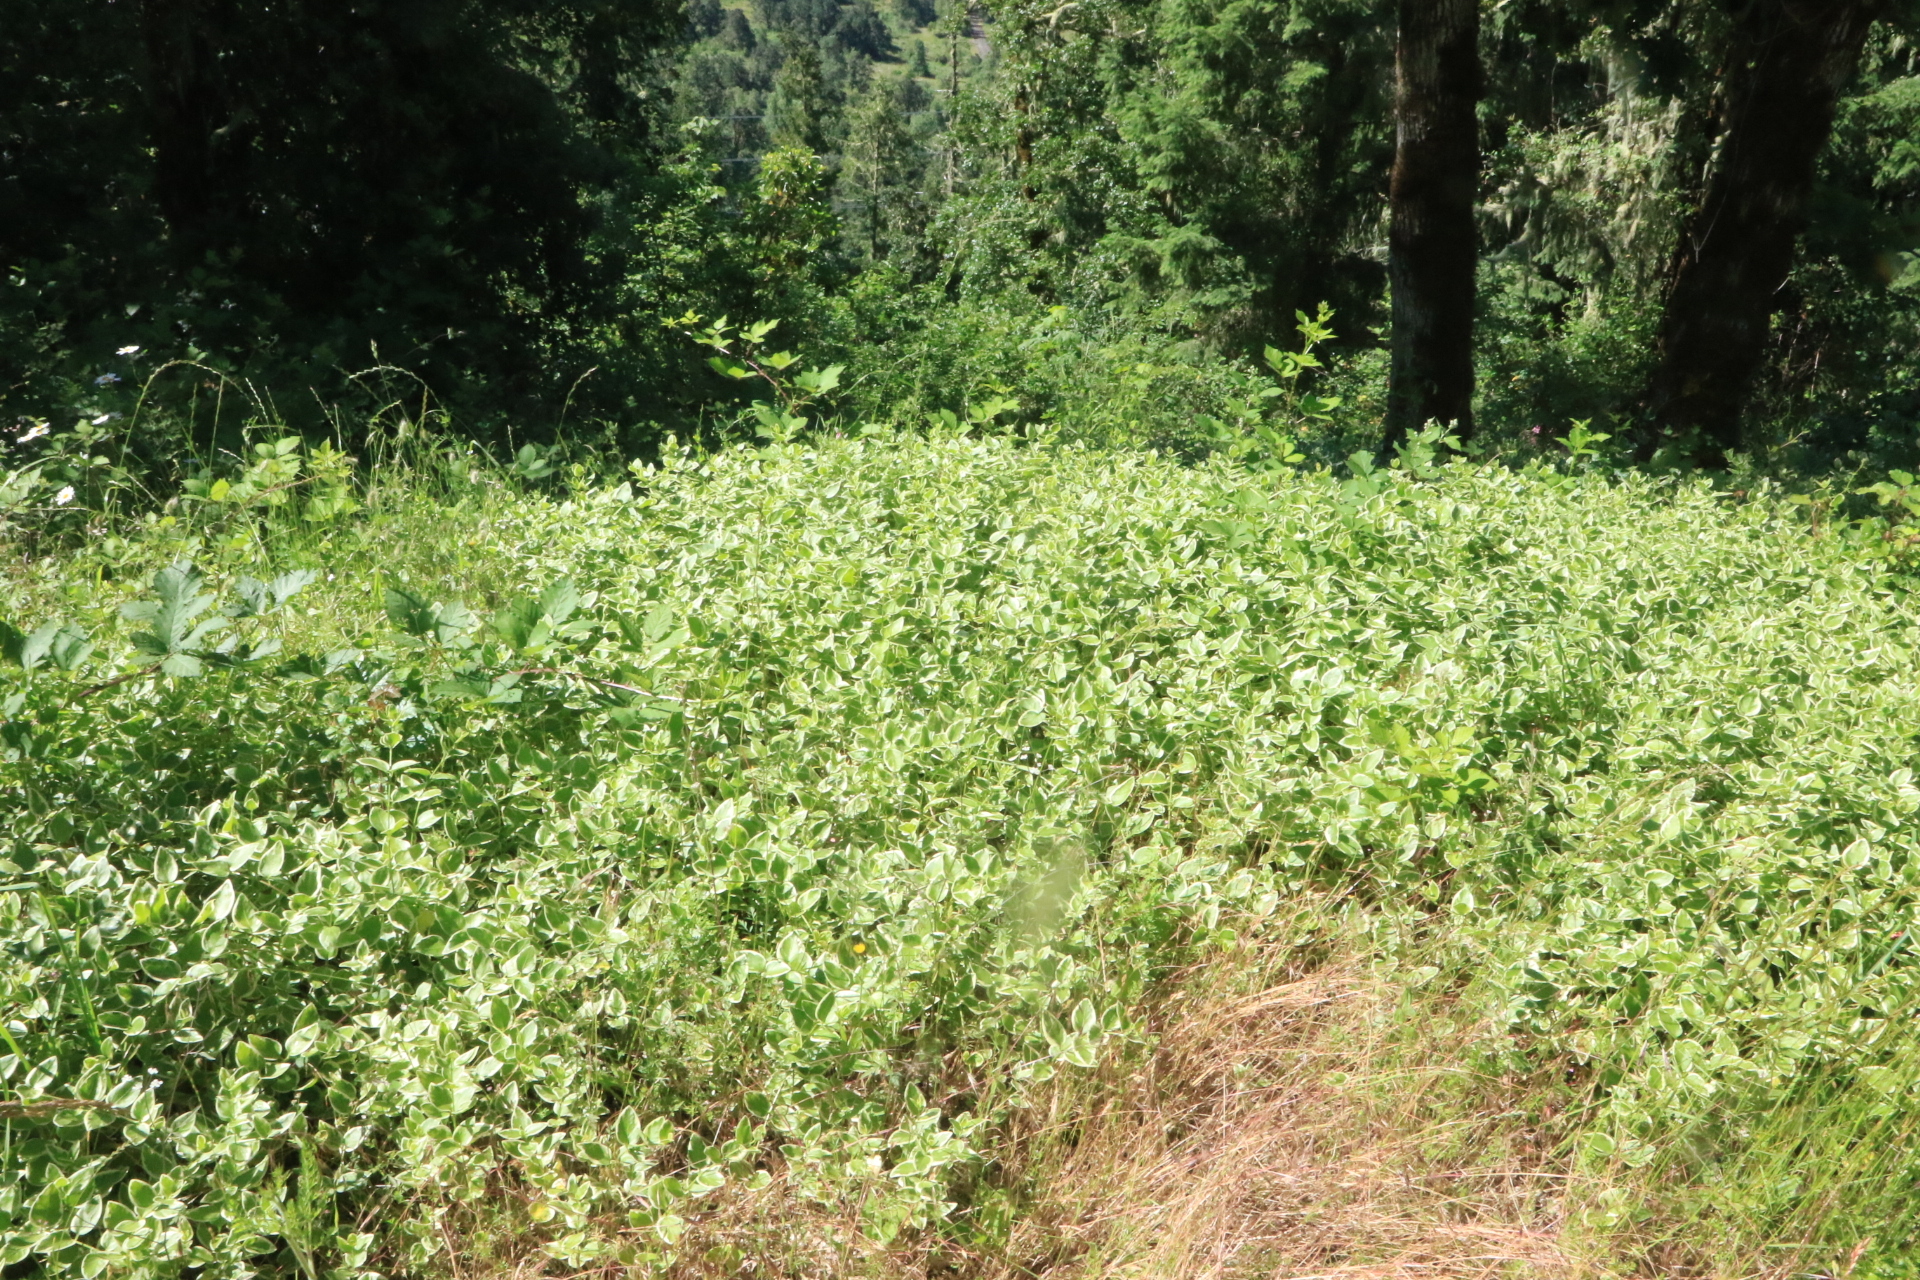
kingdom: Plantae
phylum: Tracheophyta
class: Magnoliopsida
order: Gentianales
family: Apocynaceae
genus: Vinca
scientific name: Vinca major
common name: Greater periwinkle
